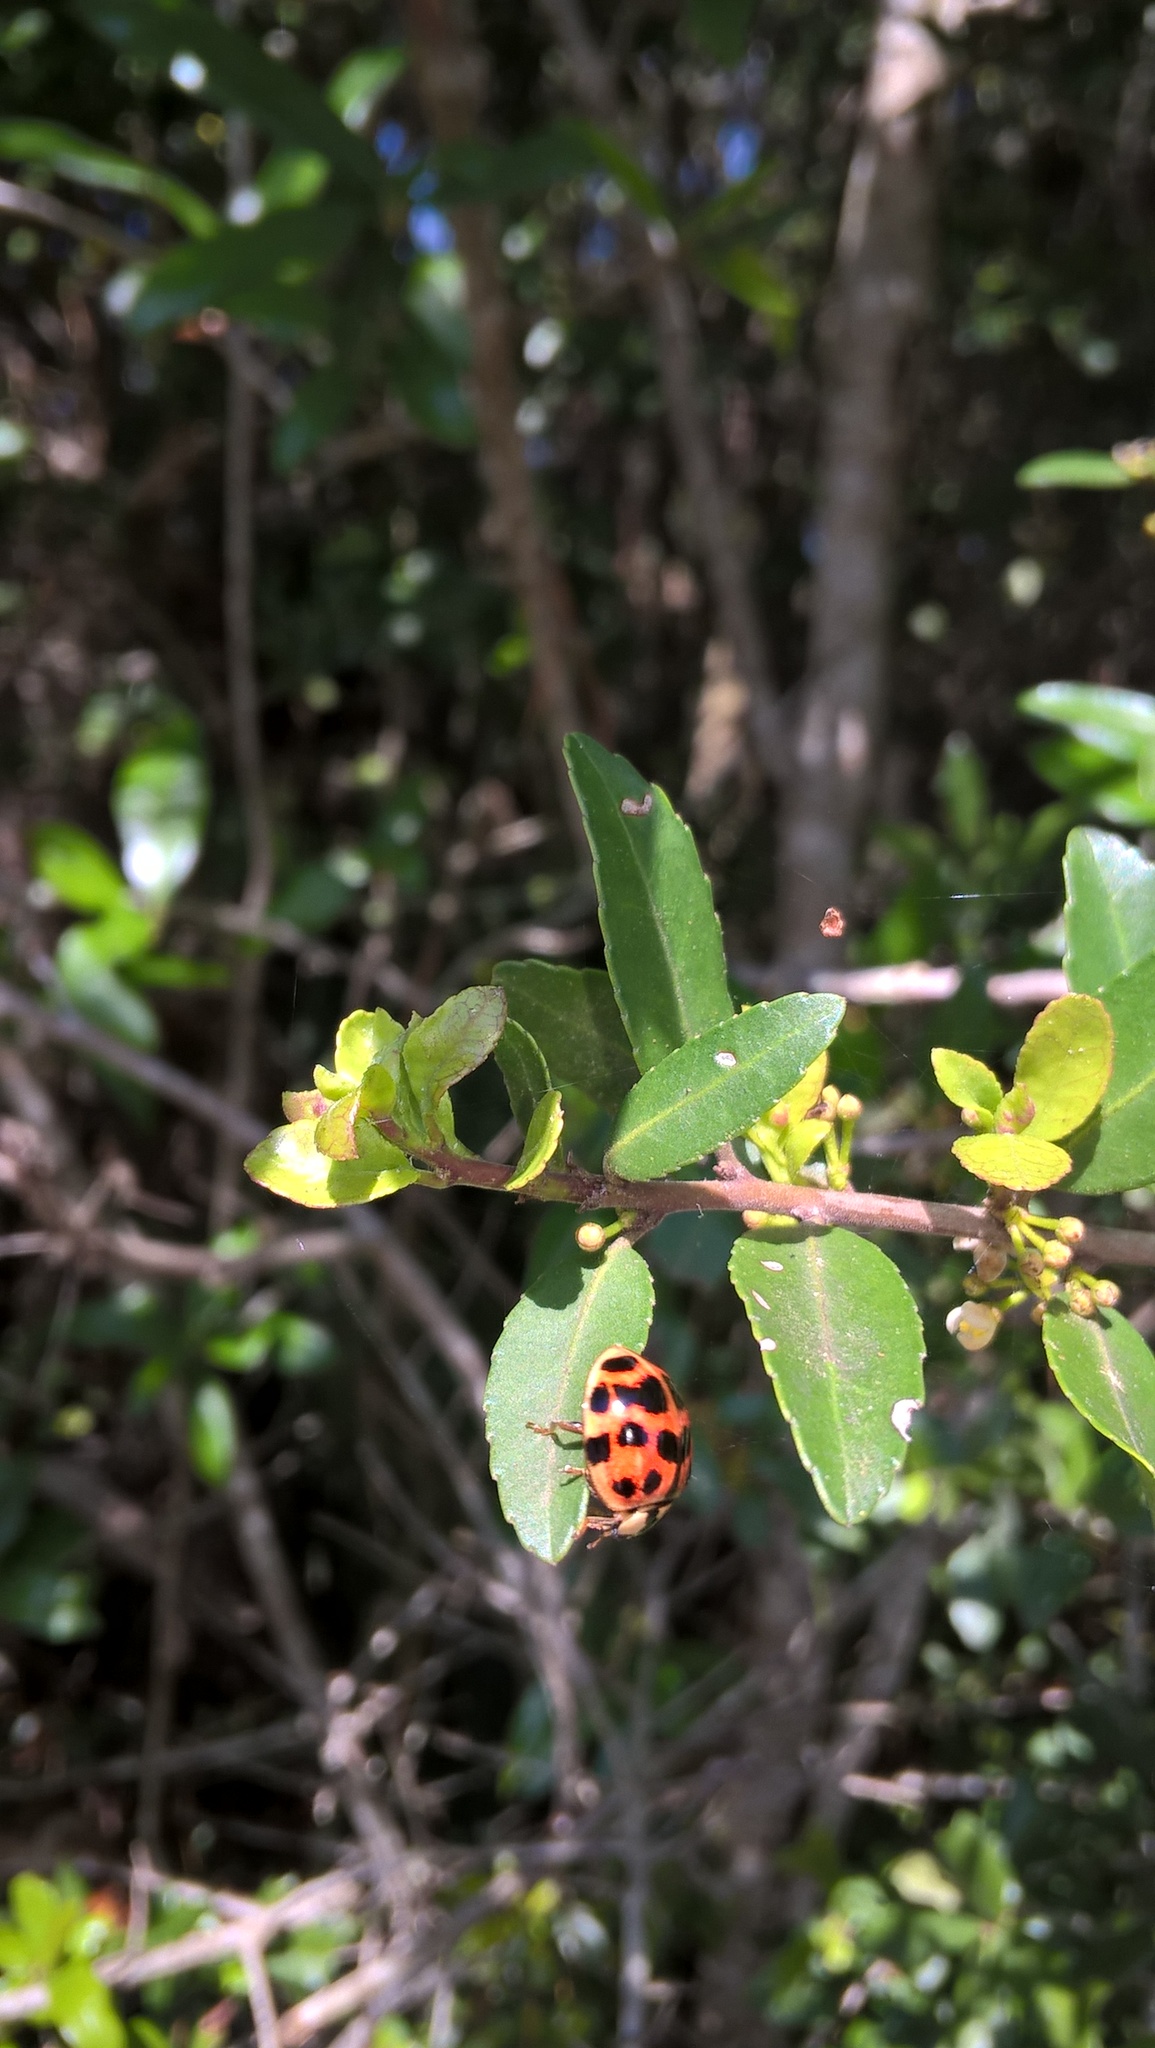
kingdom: Animalia
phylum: Arthropoda
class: Insecta
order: Coleoptera
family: Coccinellidae
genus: Harmonia
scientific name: Harmonia axyridis
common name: Harlequin ladybird
